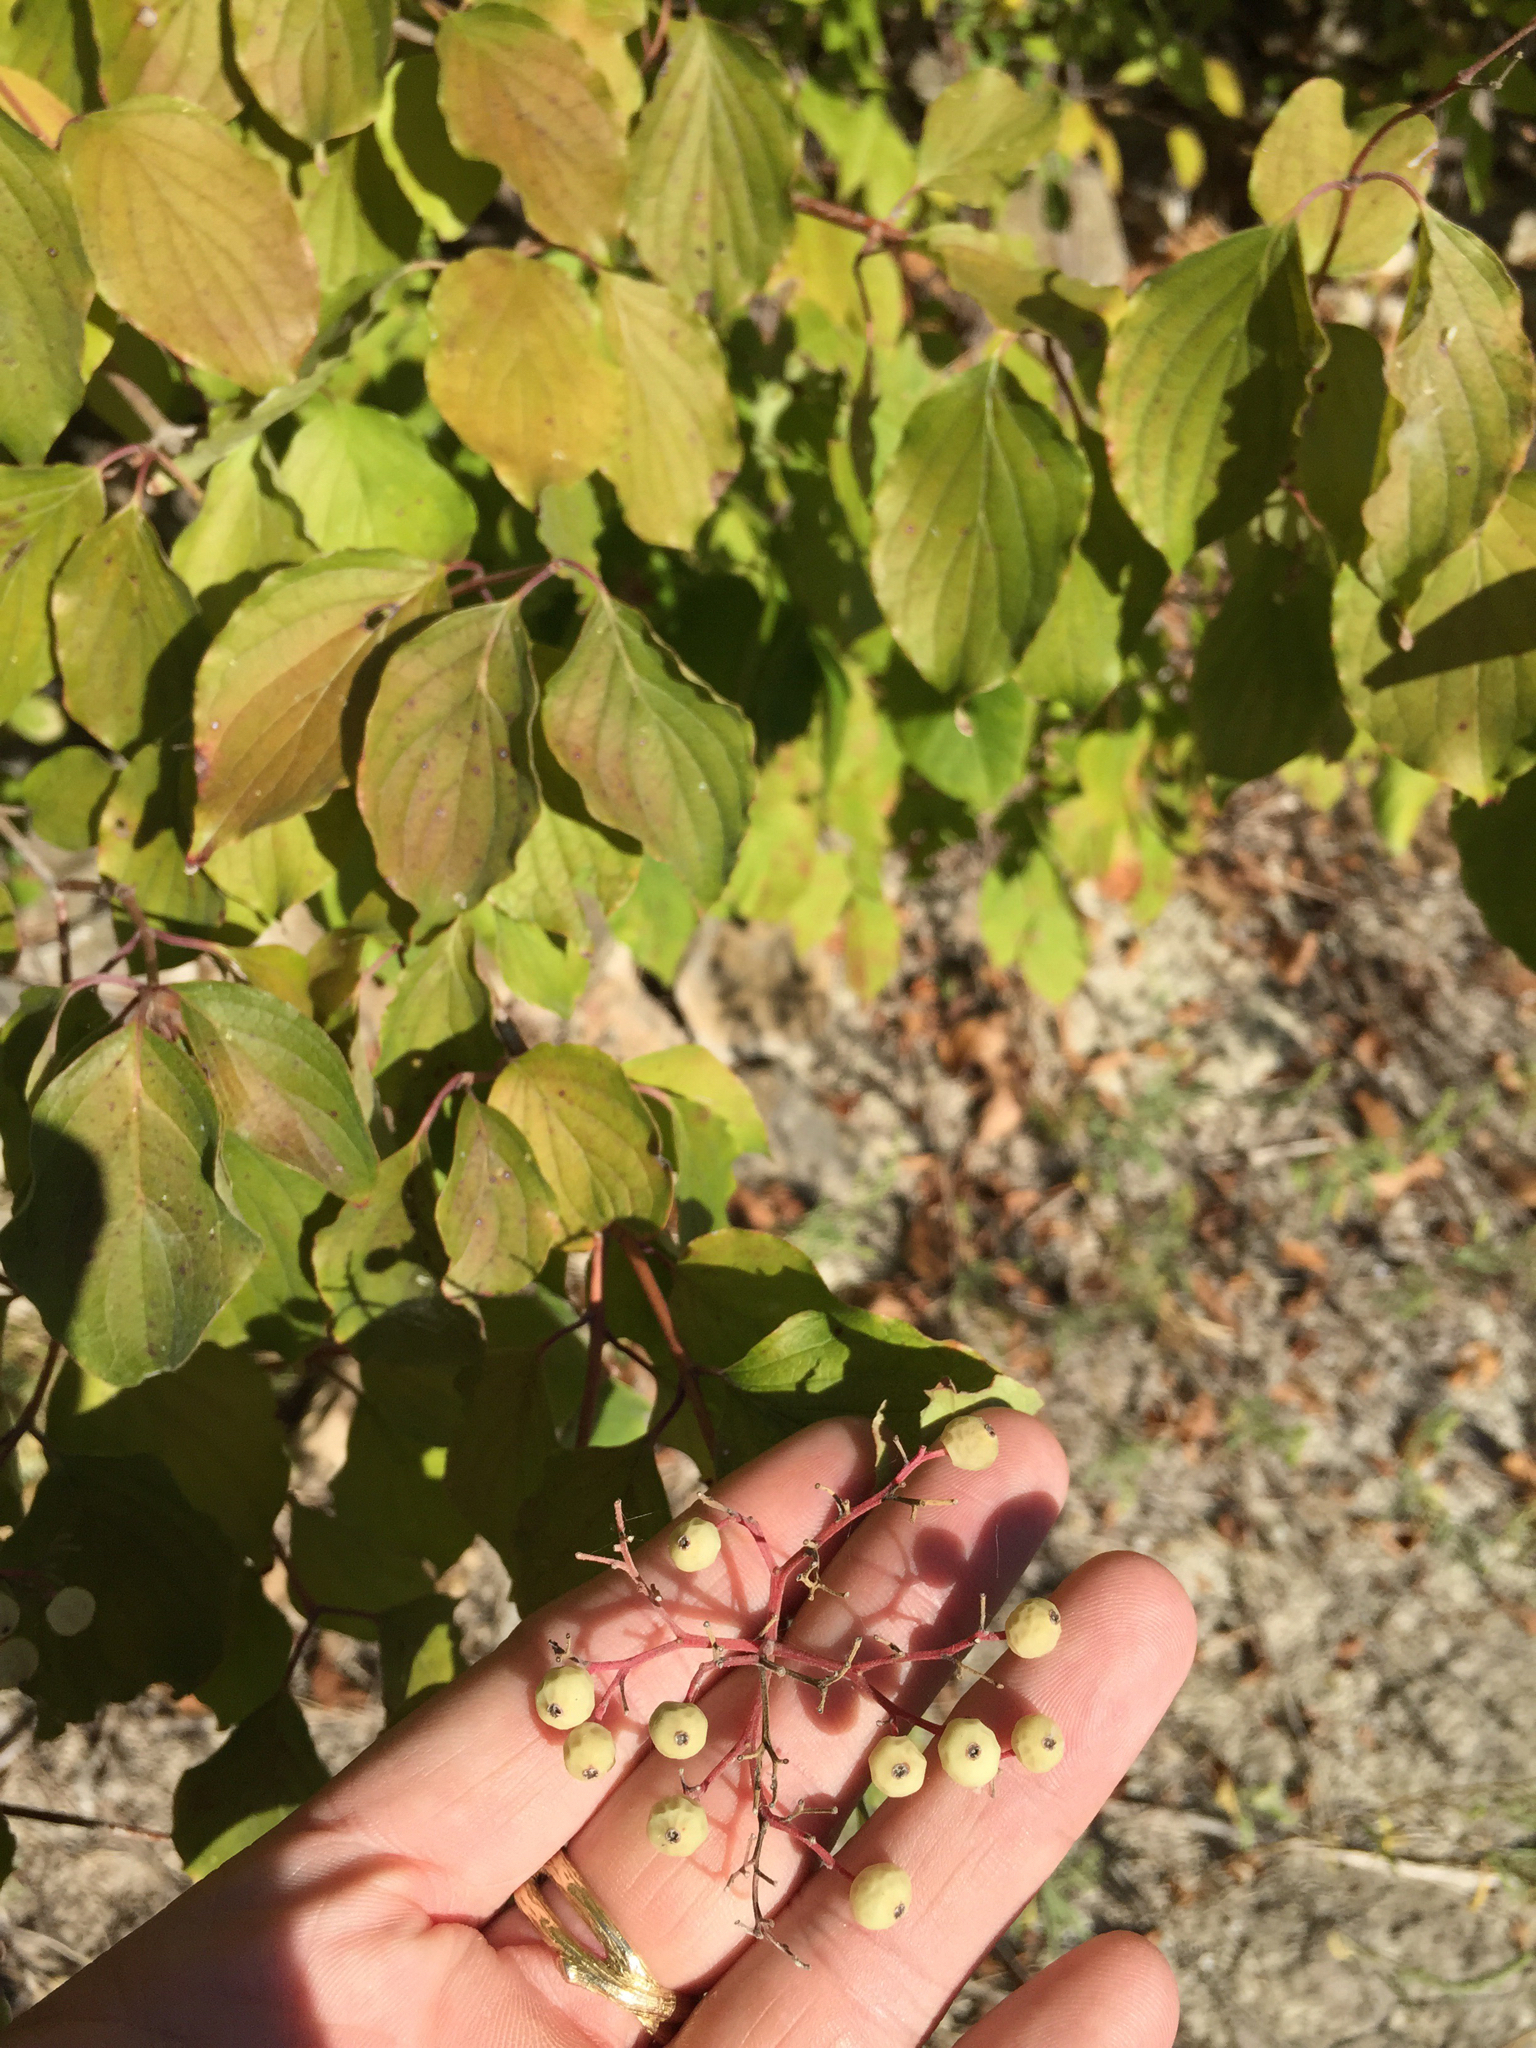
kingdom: Plantae
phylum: Tracheophyta
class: Magnoliopsida
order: Cornales
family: Cornaceae
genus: Cornus
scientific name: Cornus drummondii
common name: Rough-leaf dogwood
